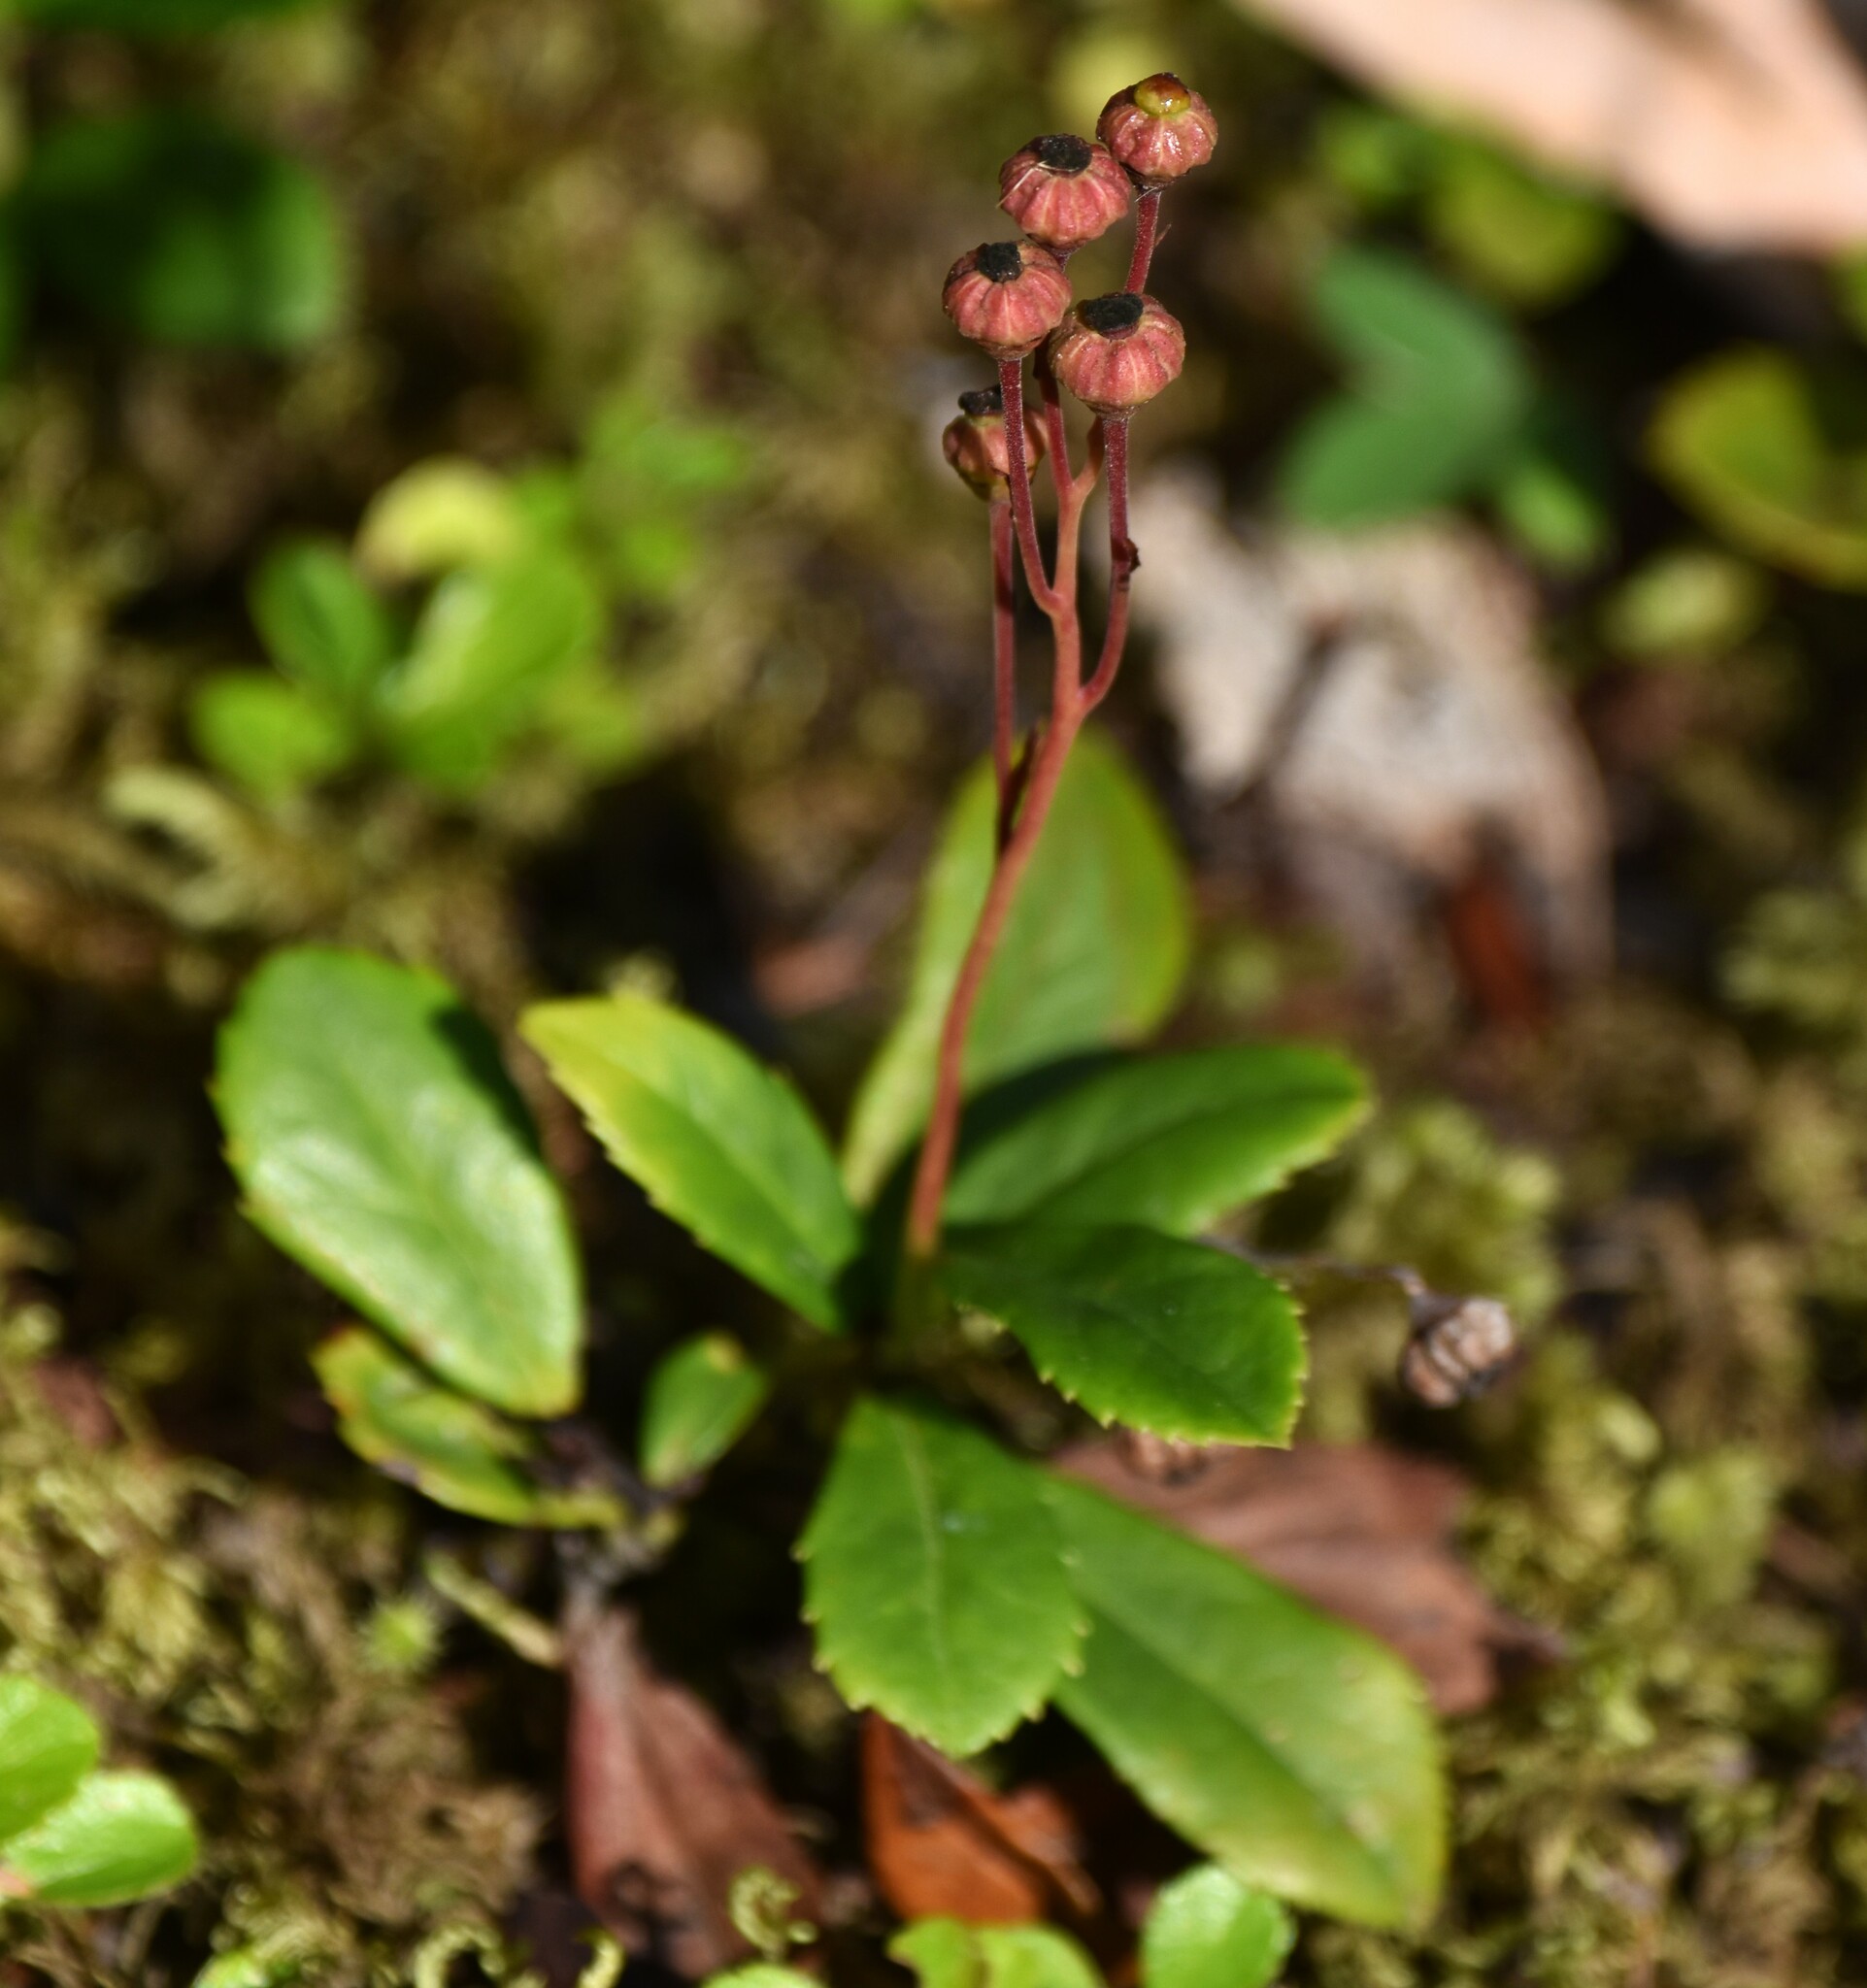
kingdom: Plantae
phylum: Tracheophyta
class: Magnoliopsida
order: Ericales
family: Ericaceae
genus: Chimaphila
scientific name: Chimaphila umbellata
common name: Pipsissewa
